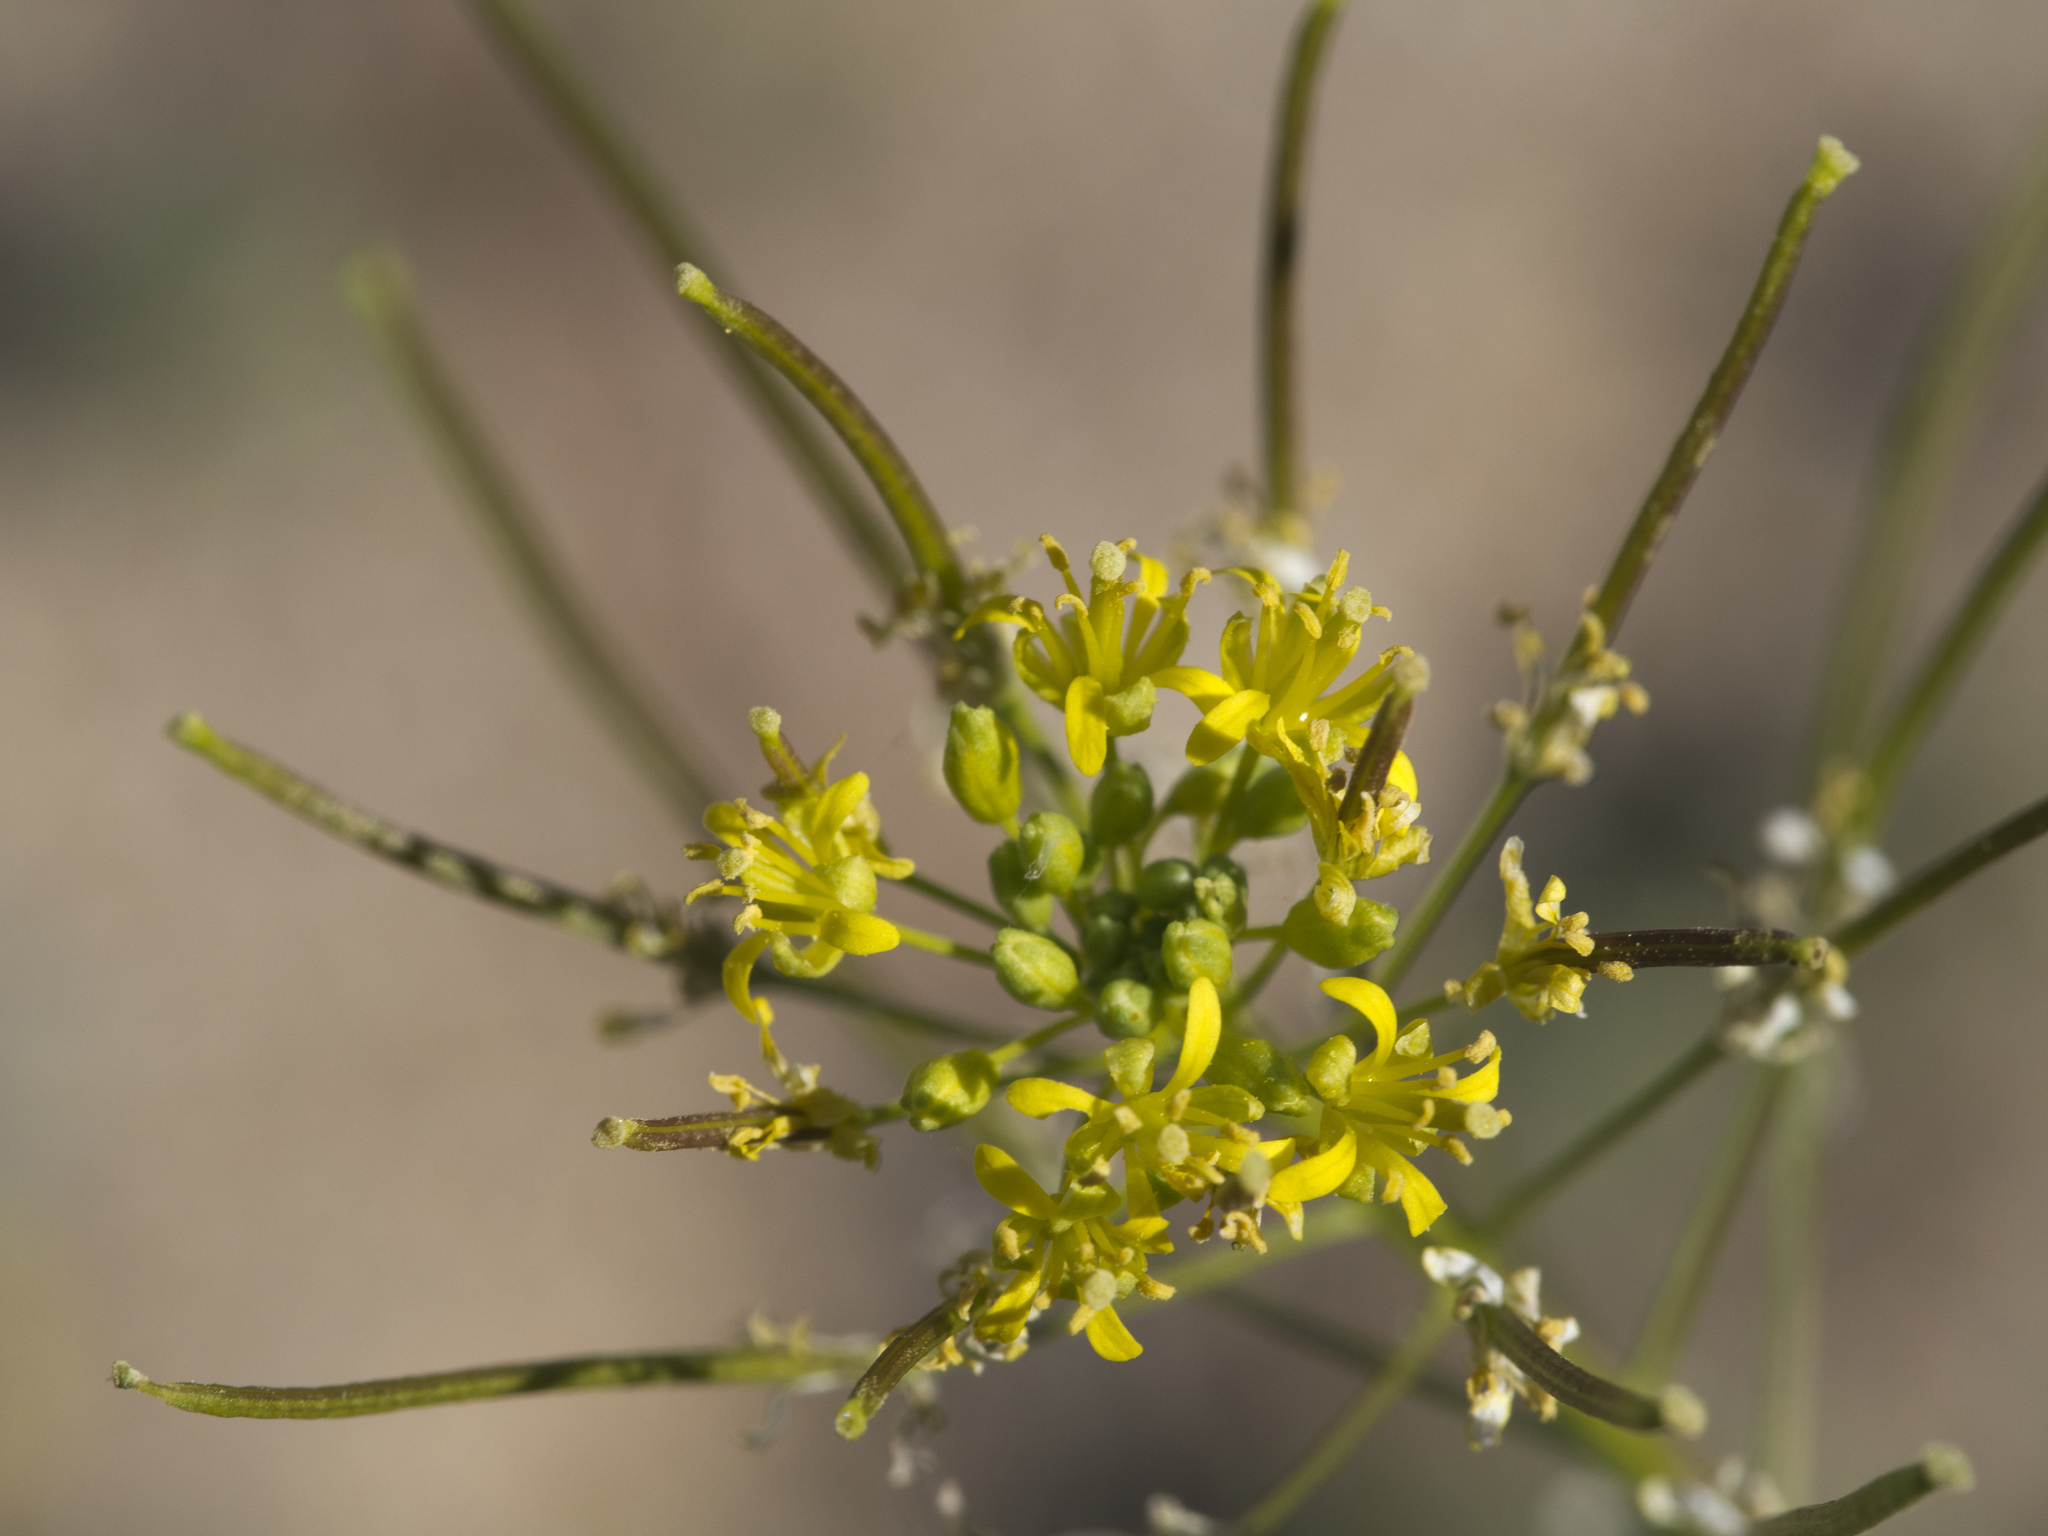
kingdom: Plantae
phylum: Tracheophyta
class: Magnoliopsida
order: Brassicales
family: Brassicaceae
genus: Sisymbrium
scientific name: Sisymbrium irio
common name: London rocket
